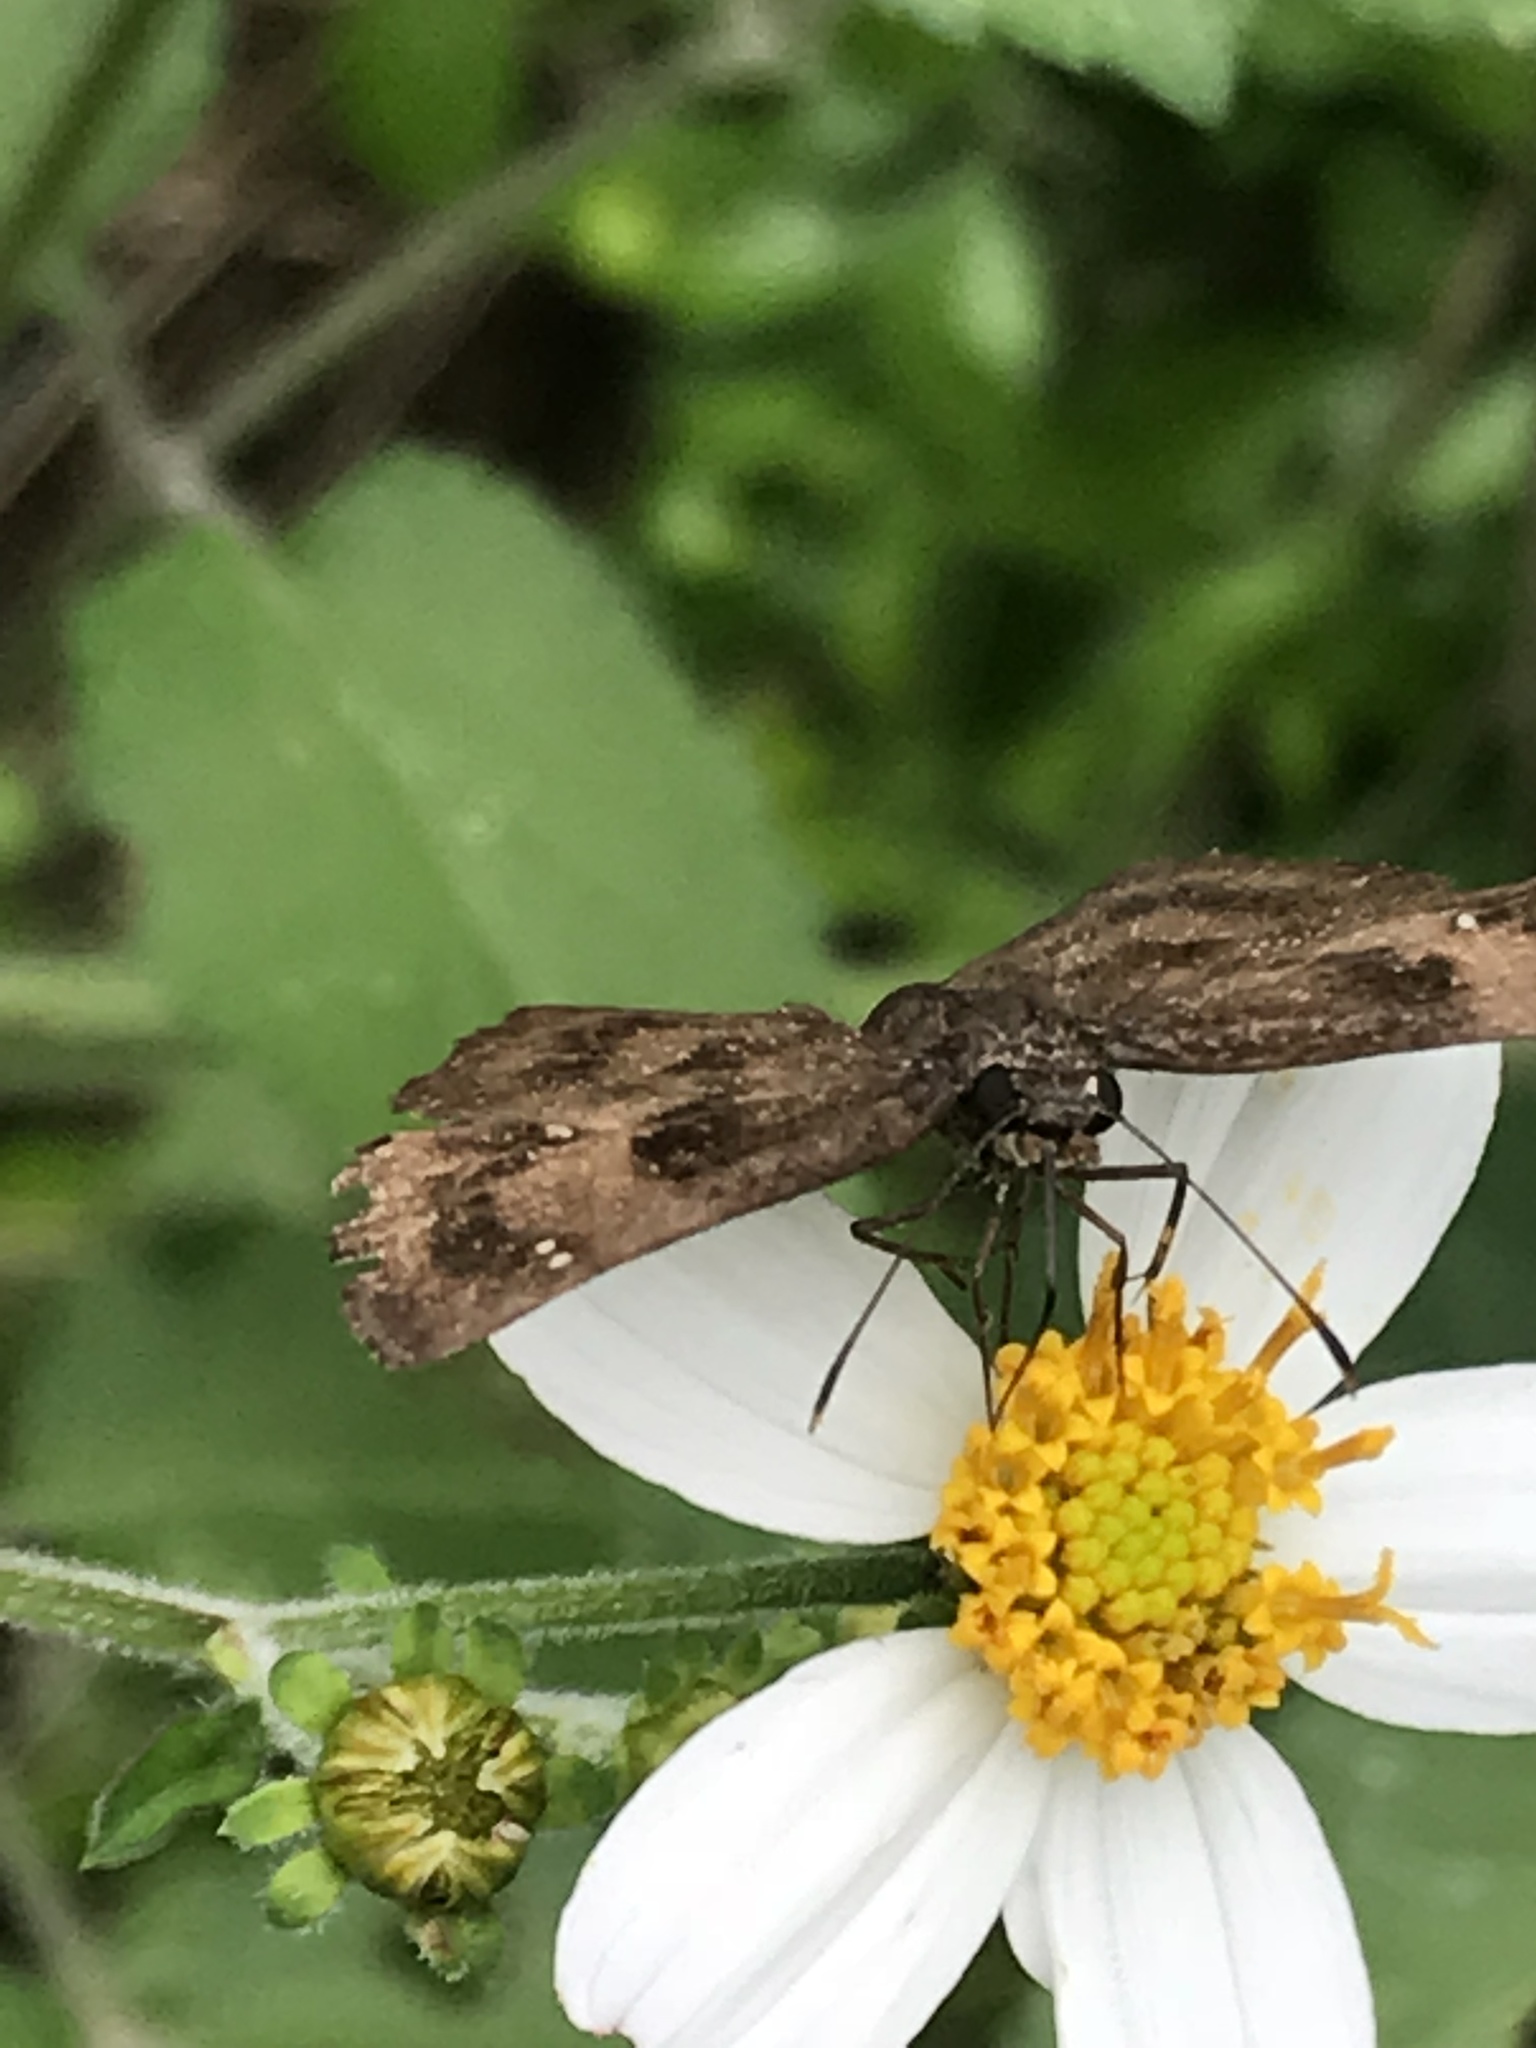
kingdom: Animalia
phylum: Arthropoda
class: Insecta
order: Lepidoptera
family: Hesperiidae
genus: Staphylus
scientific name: Staphylus mazans
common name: Mazans scallopwing
